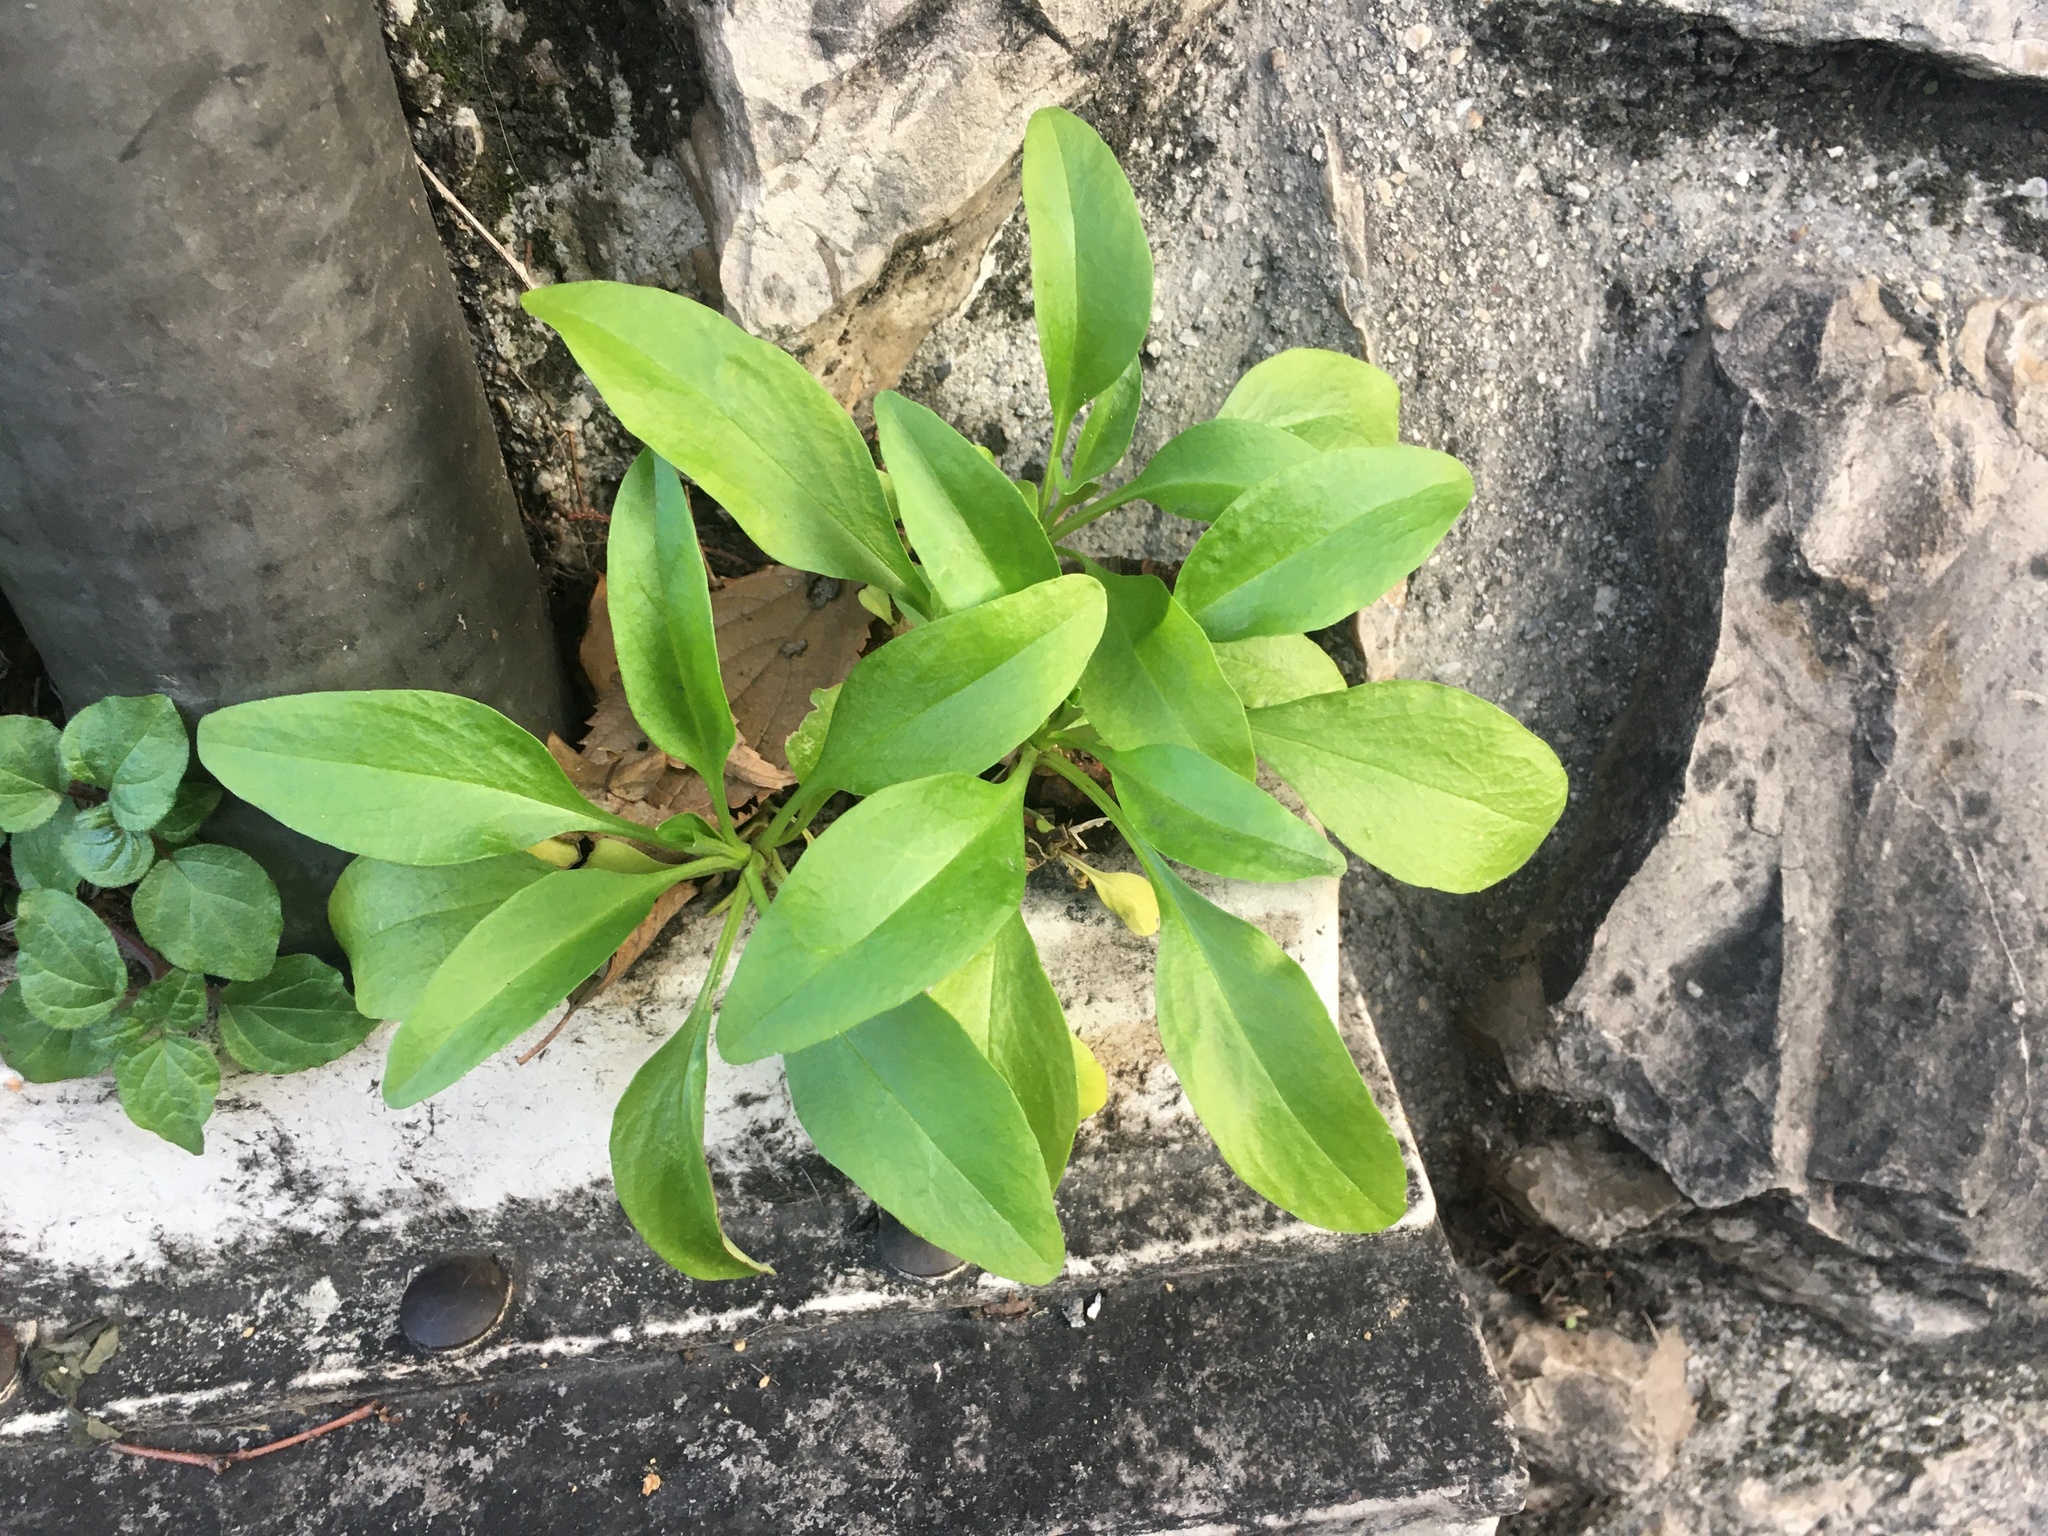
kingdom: Plantae
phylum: Tracheophyta
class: Magnoliopsida
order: Dipsacales
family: Caprifoliaceae
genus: Centranthus
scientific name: Centranthus ruber
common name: Red valerian
